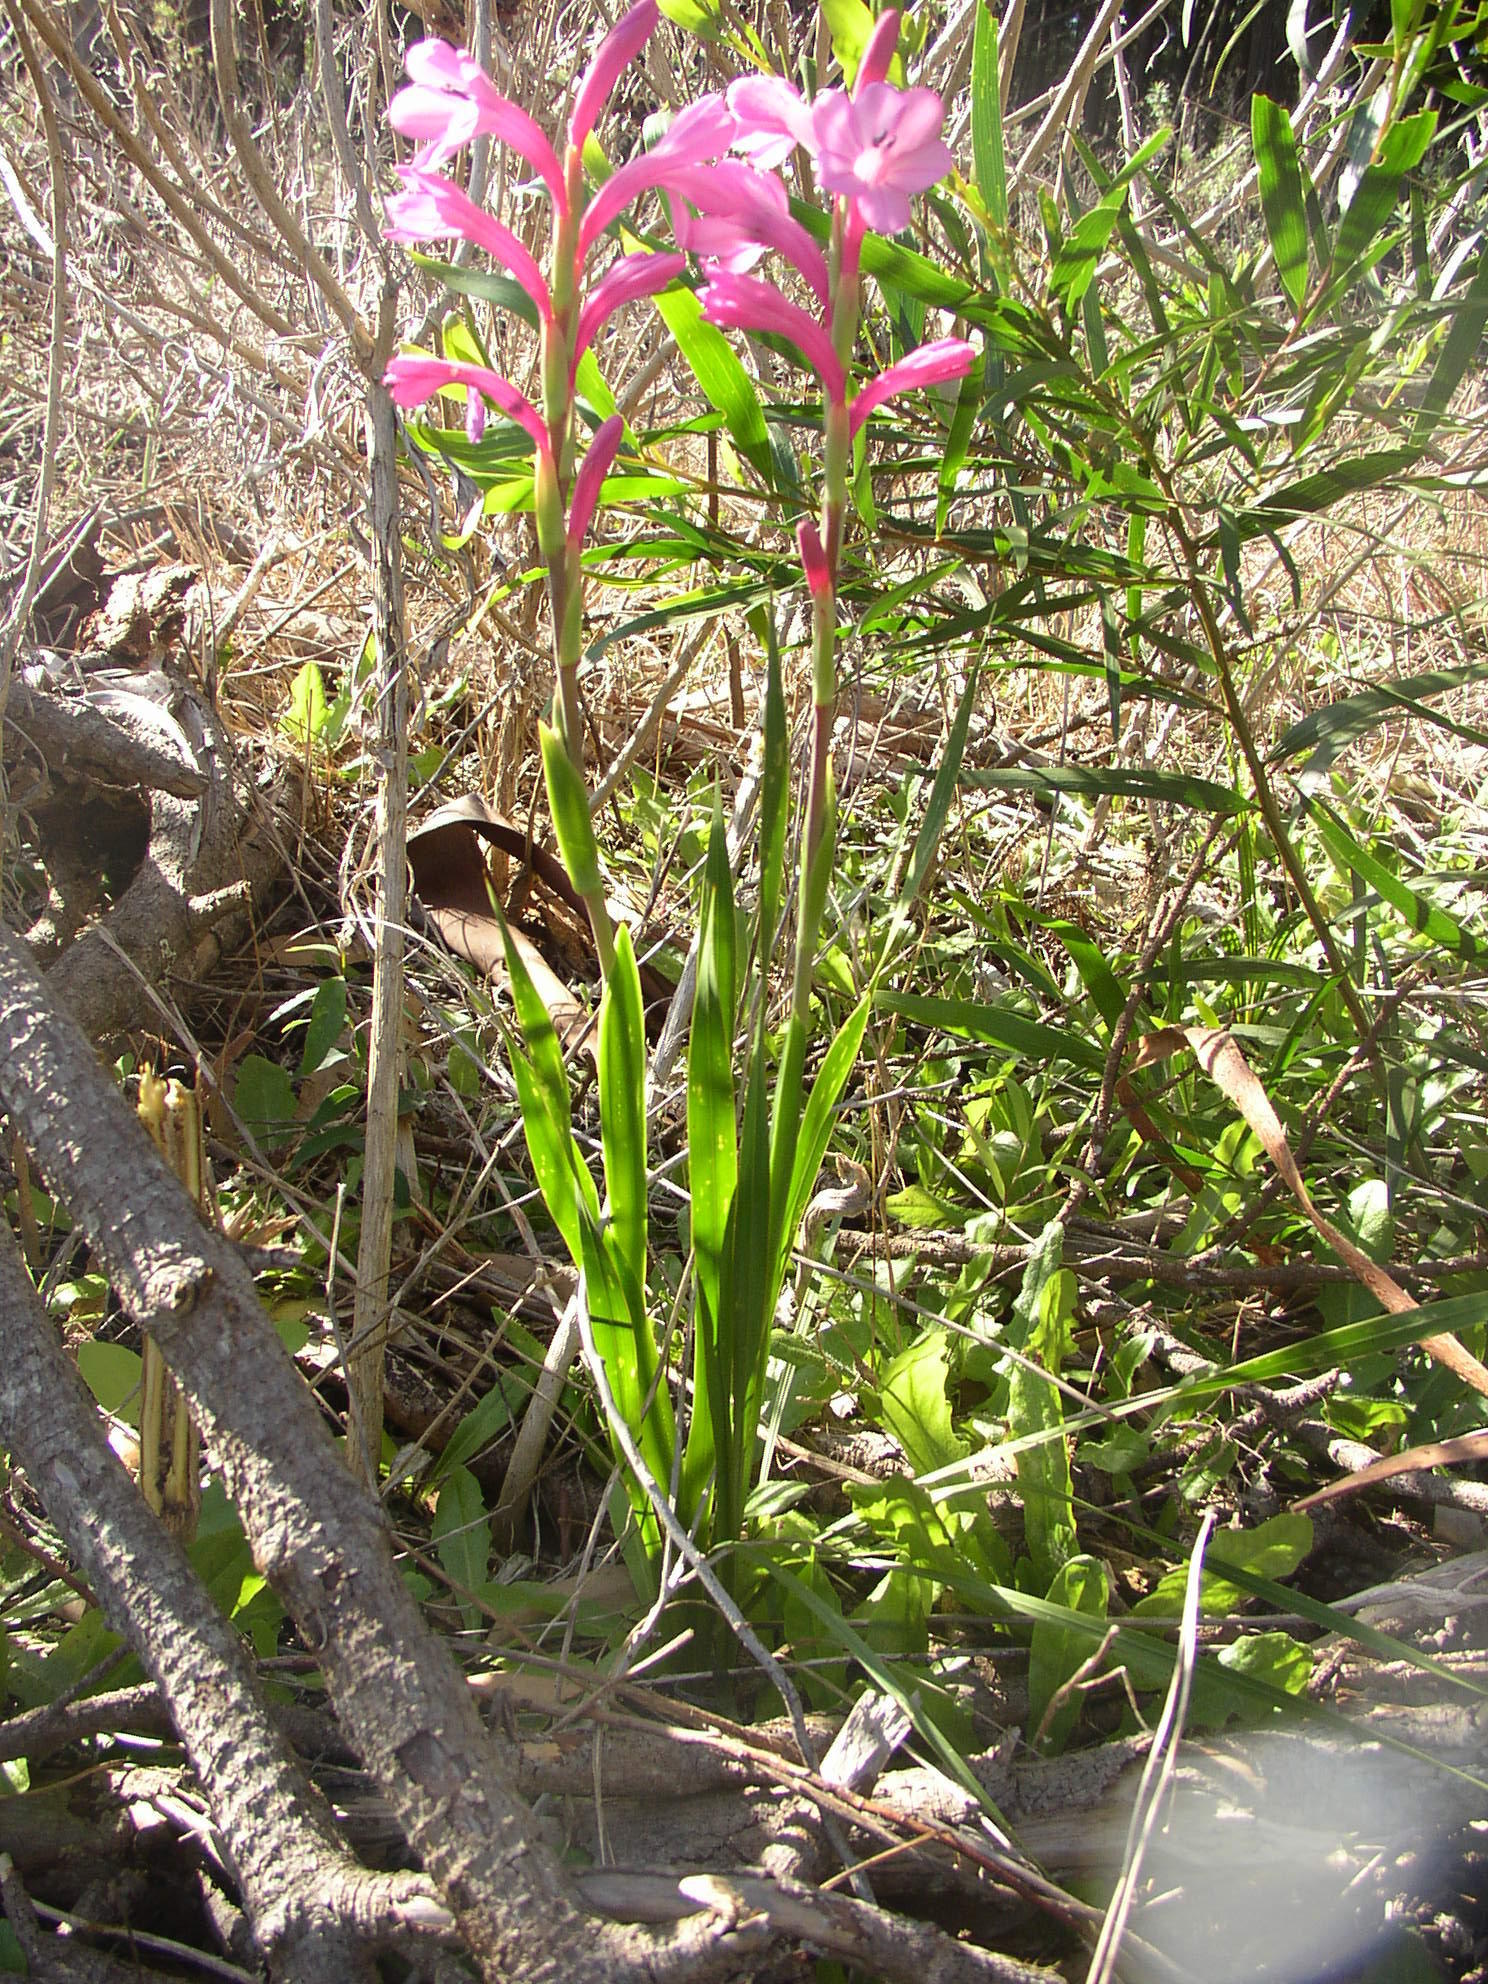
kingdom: Plantae
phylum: Tracheophyta
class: Liliopsida
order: Asparagales
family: Iridaceae
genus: Watsonia
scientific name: Watsonia coccinea
